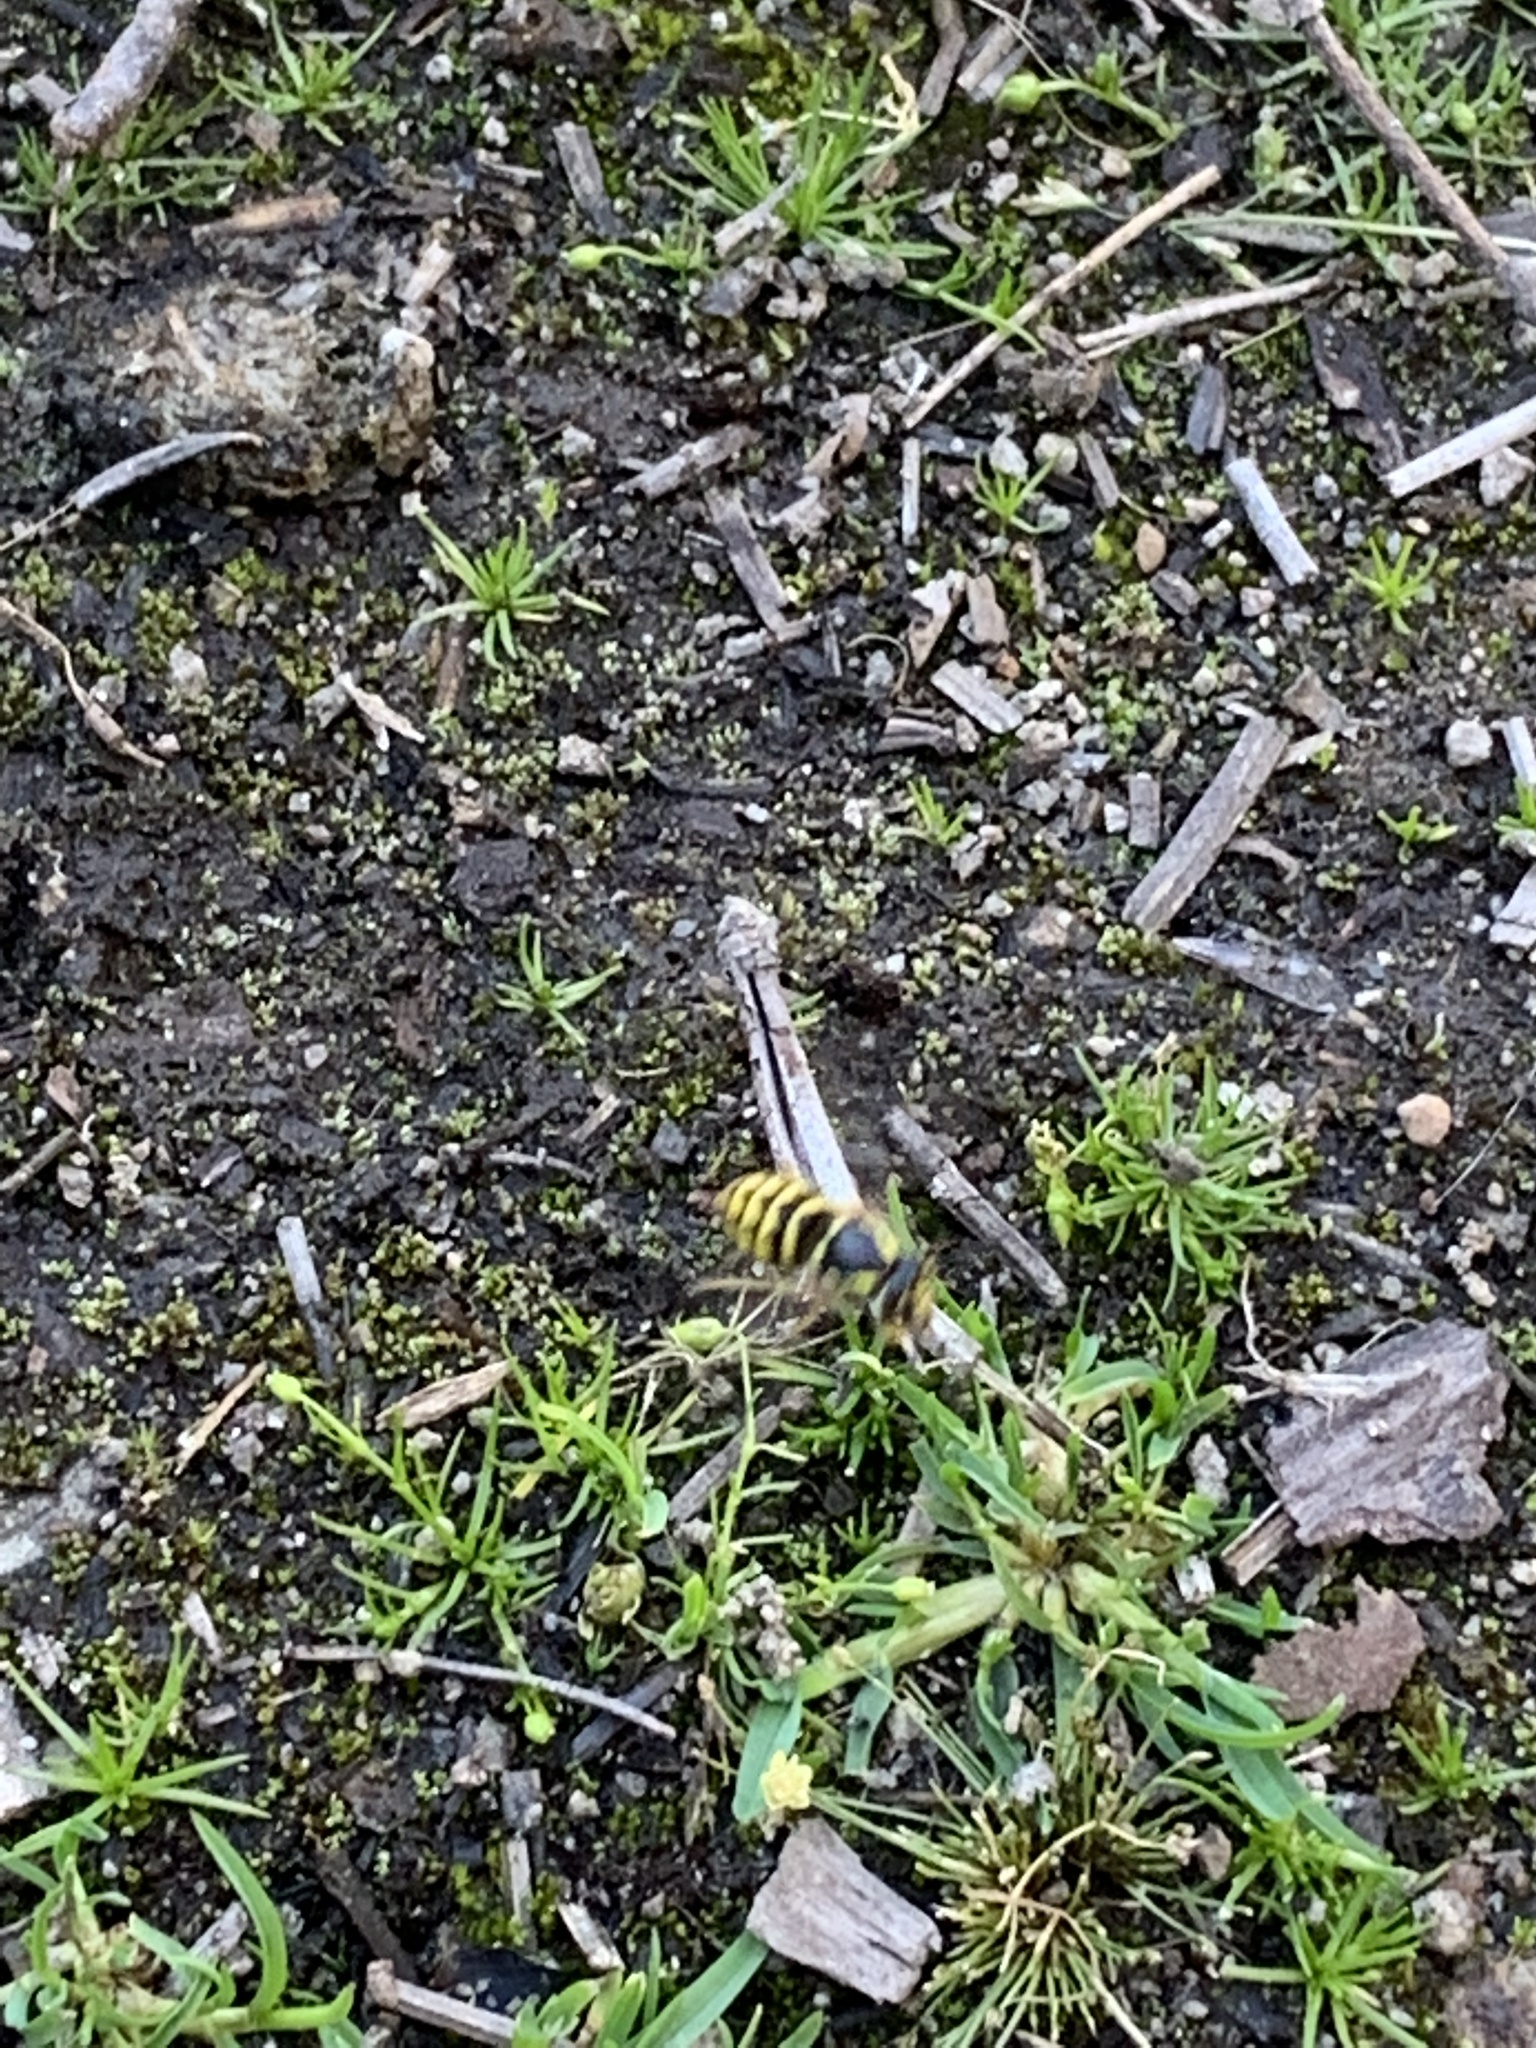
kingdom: Animalia
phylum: Arthropoda
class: Insecta
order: Hymenoptera
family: Vespidae
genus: Dolichovespula
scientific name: Dolichovespula arenaria
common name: Aerial yellowjacket
